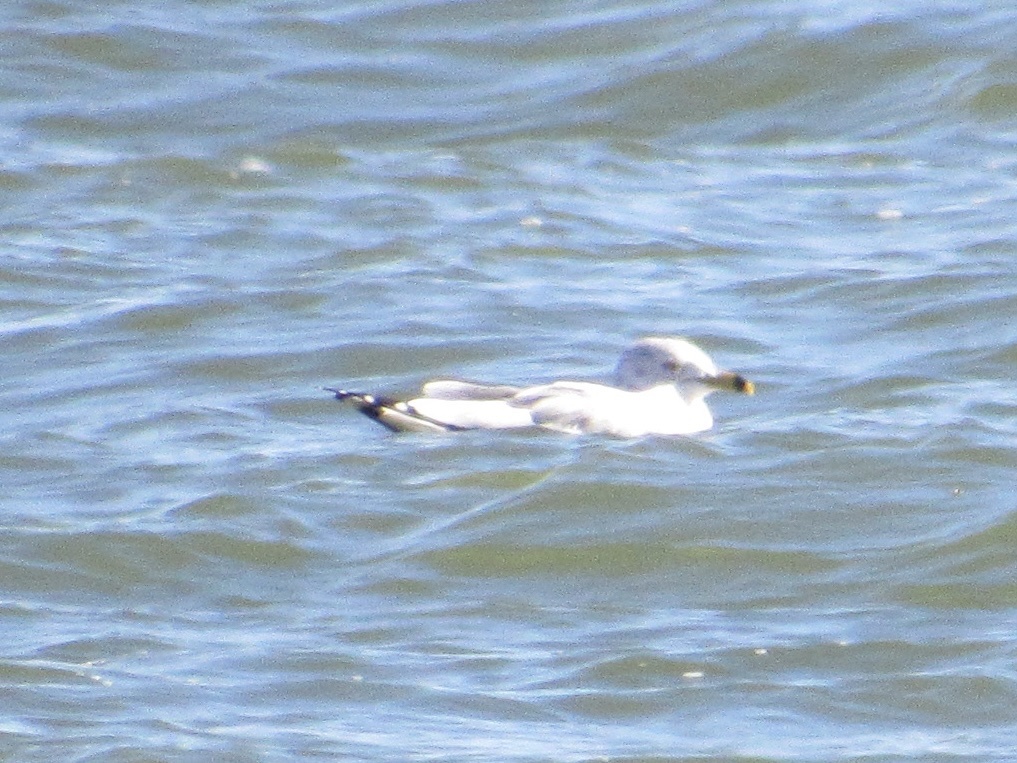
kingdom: Animalia
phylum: Chordata
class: Aves
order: Charadriiformes
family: Laridae
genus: Larus
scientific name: Larus delawarensis
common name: Ring-billed gull
